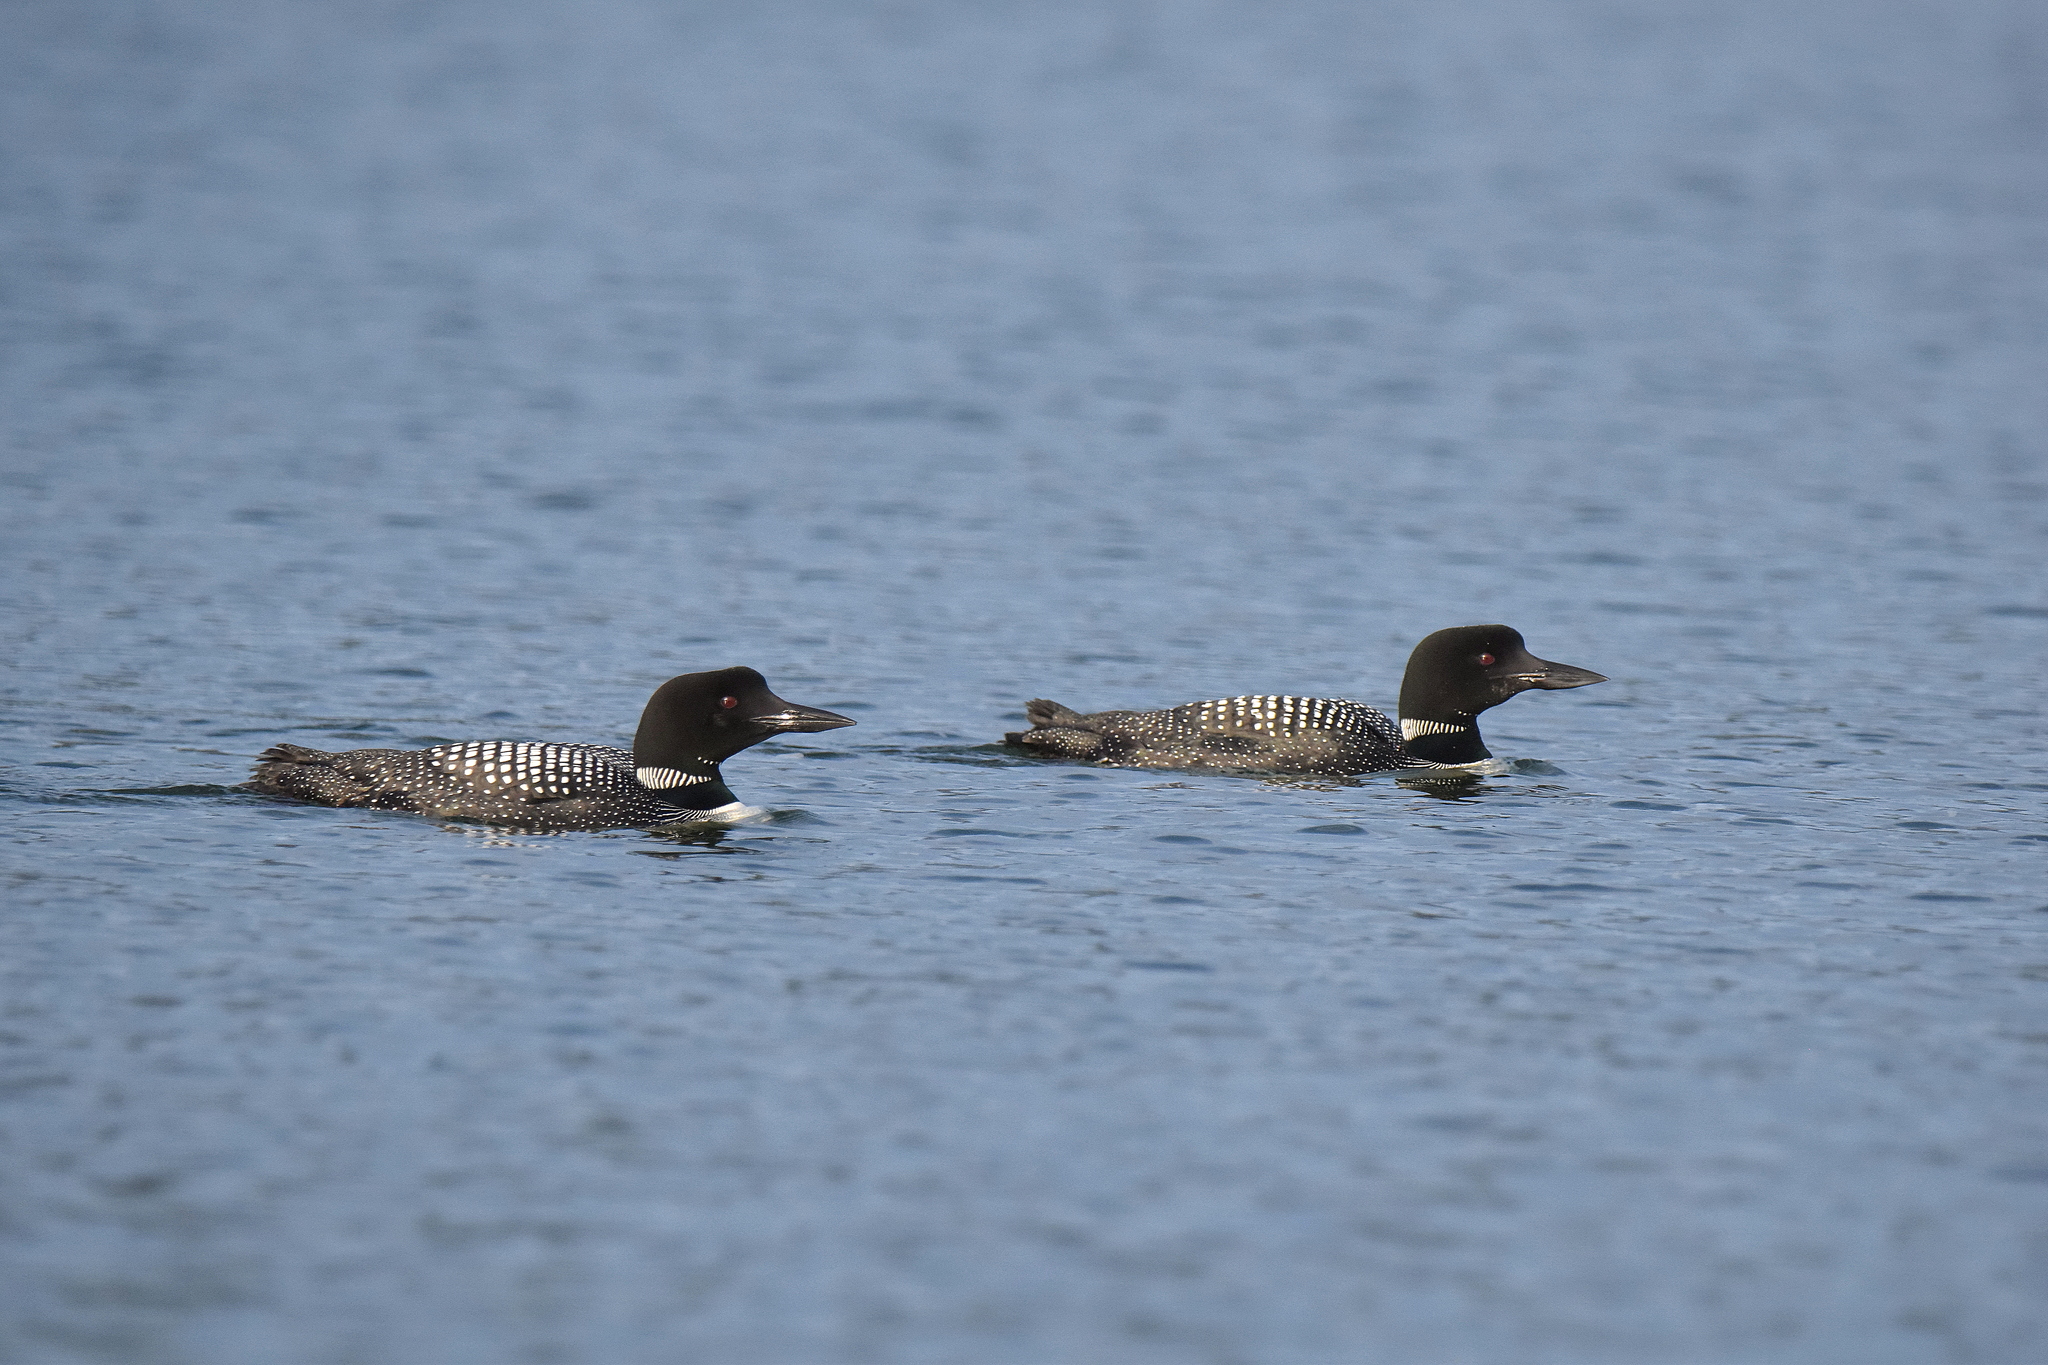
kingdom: Animalia
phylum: Chordata
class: Aves
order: Gaviiformes
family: Gaviidae
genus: Gavia
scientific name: Gavia immer
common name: Common loon
